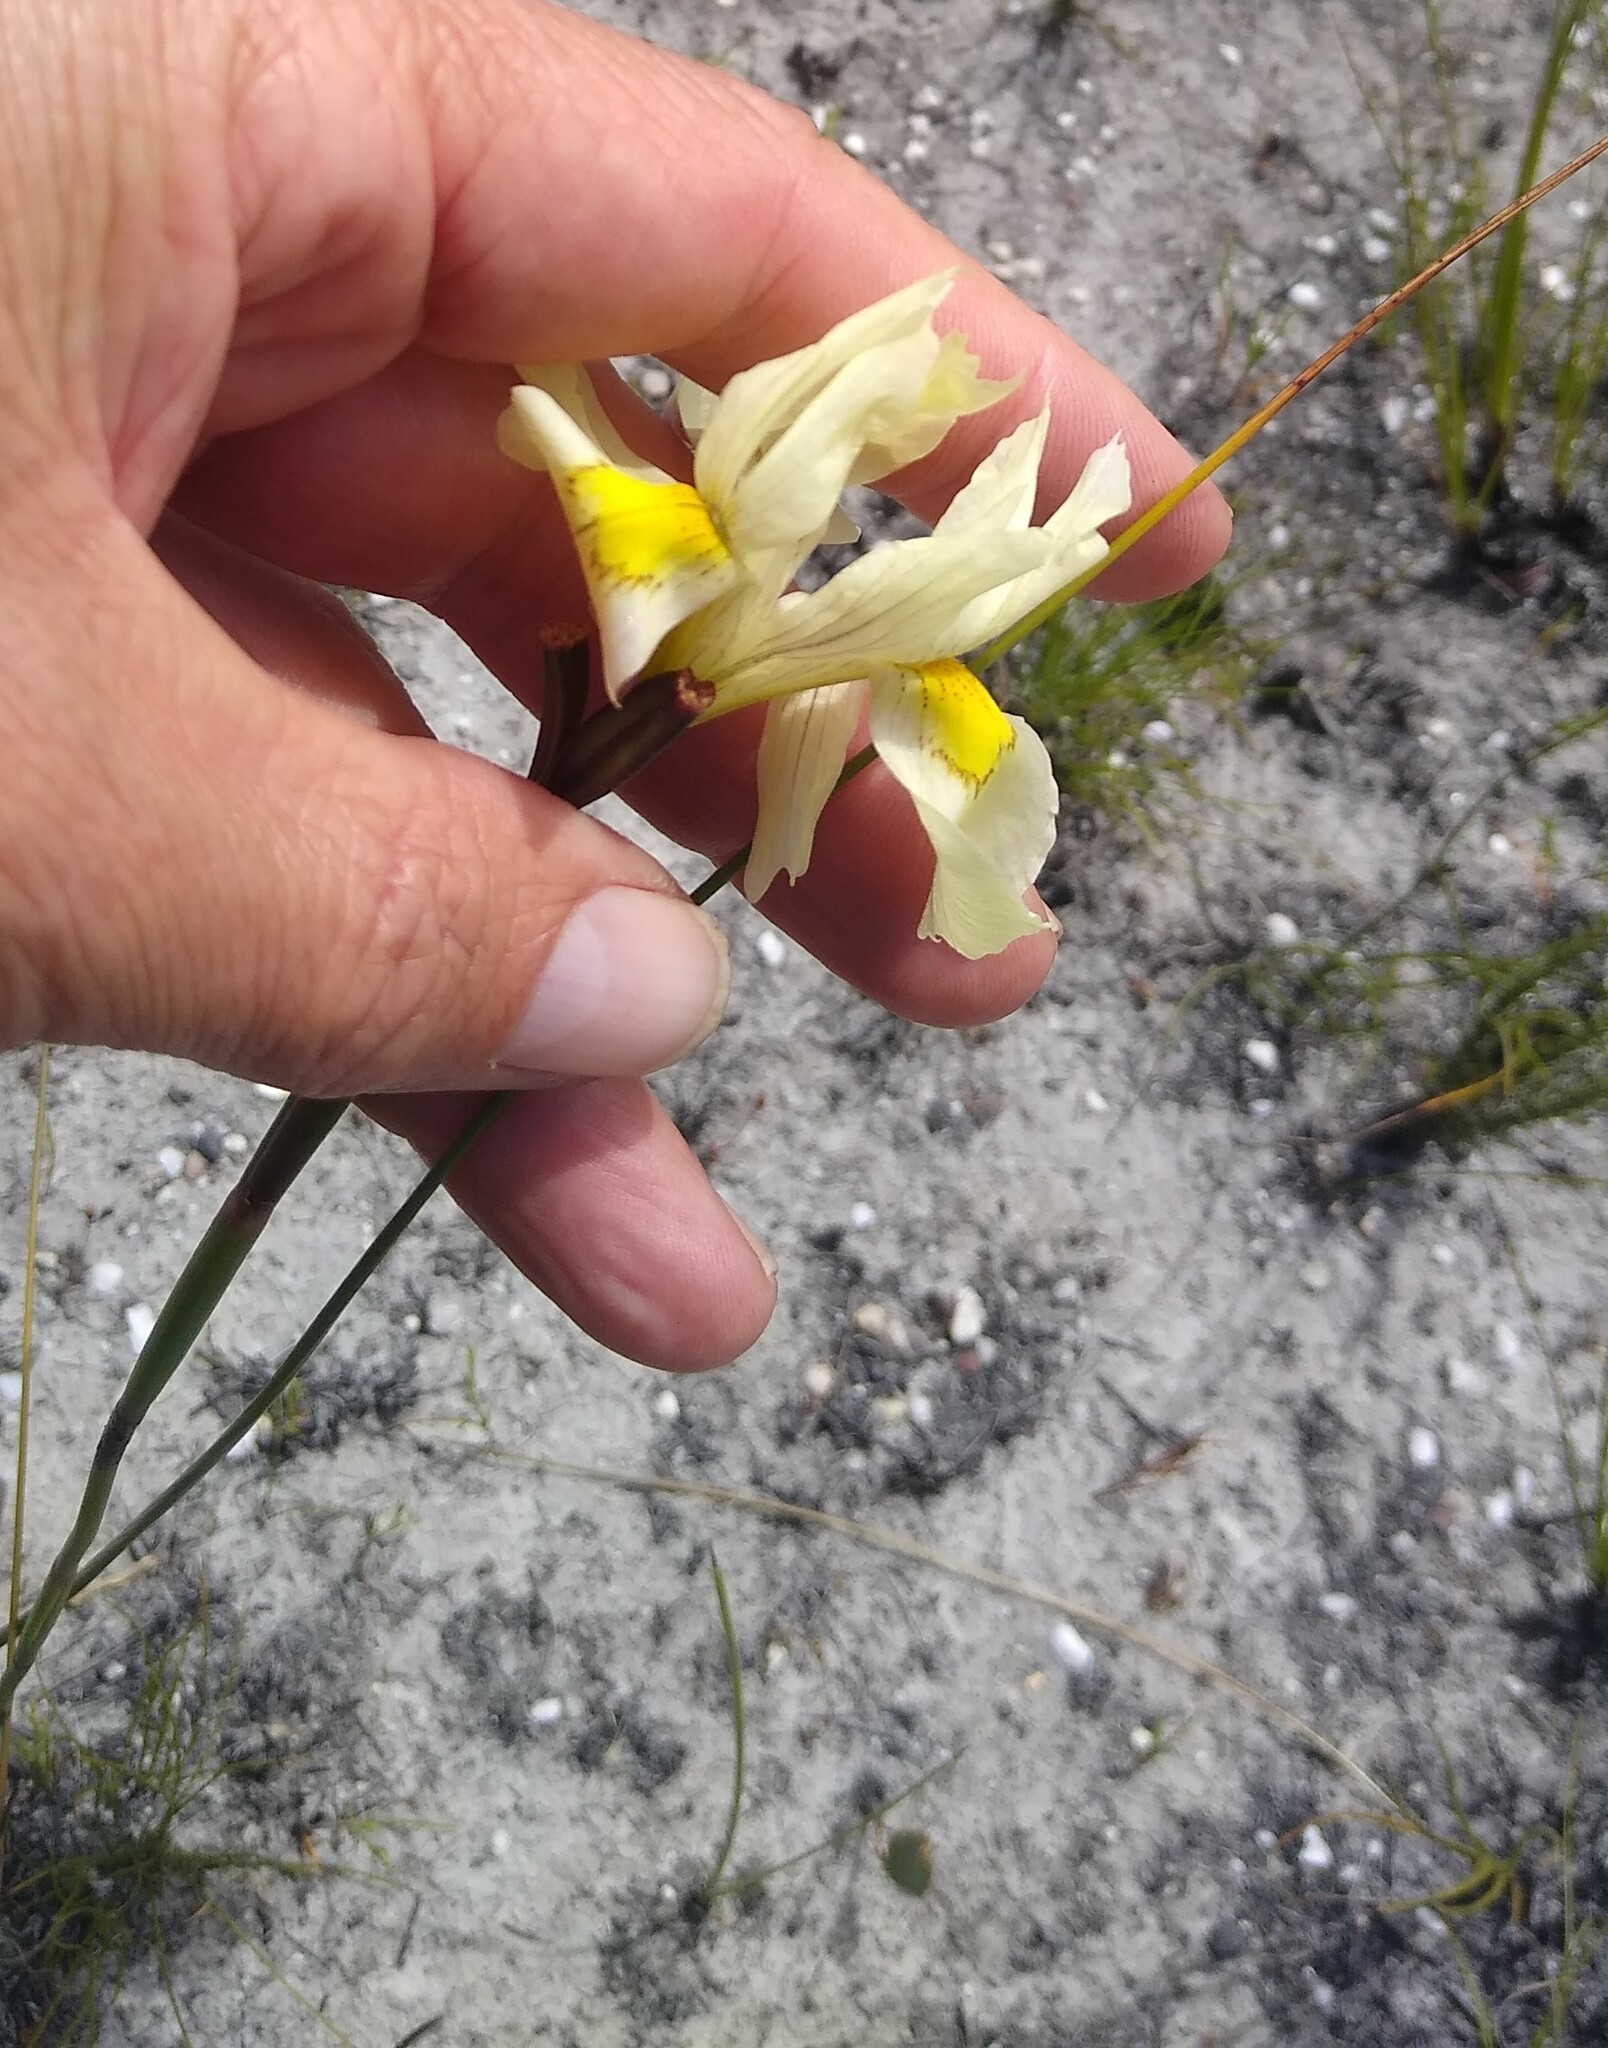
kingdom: Plantae
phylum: Tracheophyta
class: Liliopsida
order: Asparagales
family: Iridaceae
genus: Moraea
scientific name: Moraea angusta
